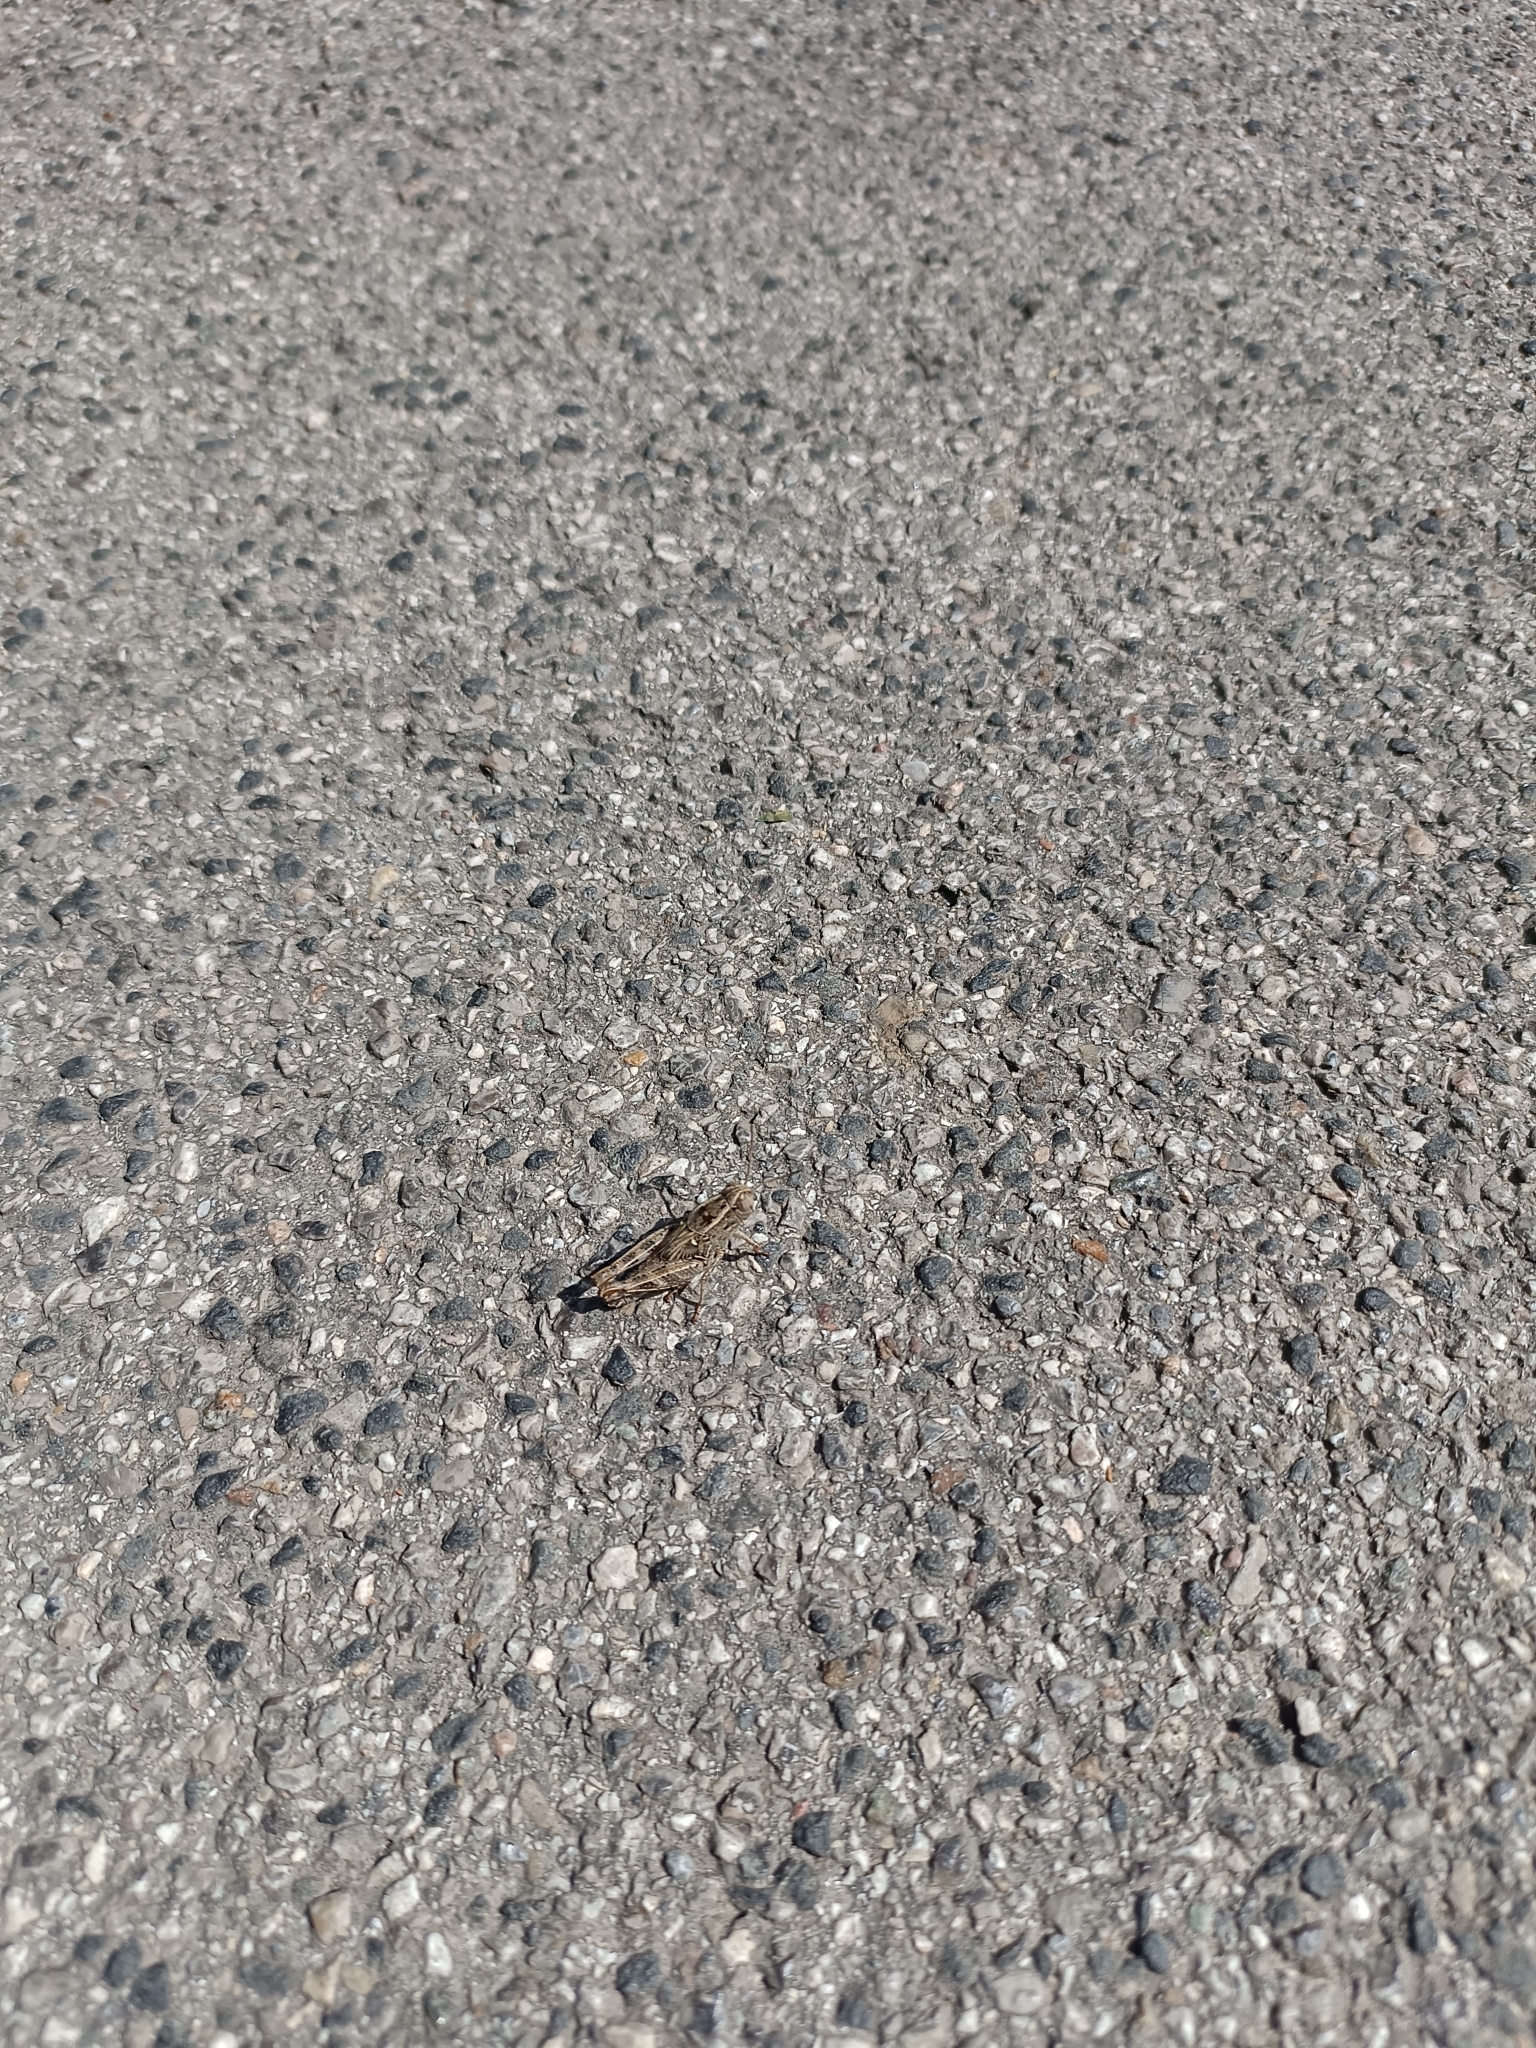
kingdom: Animalia
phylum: Arthropoda
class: Insecta
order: Orthoptera
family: Acrididae
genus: Calliptamus
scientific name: Calliptamus italicus
